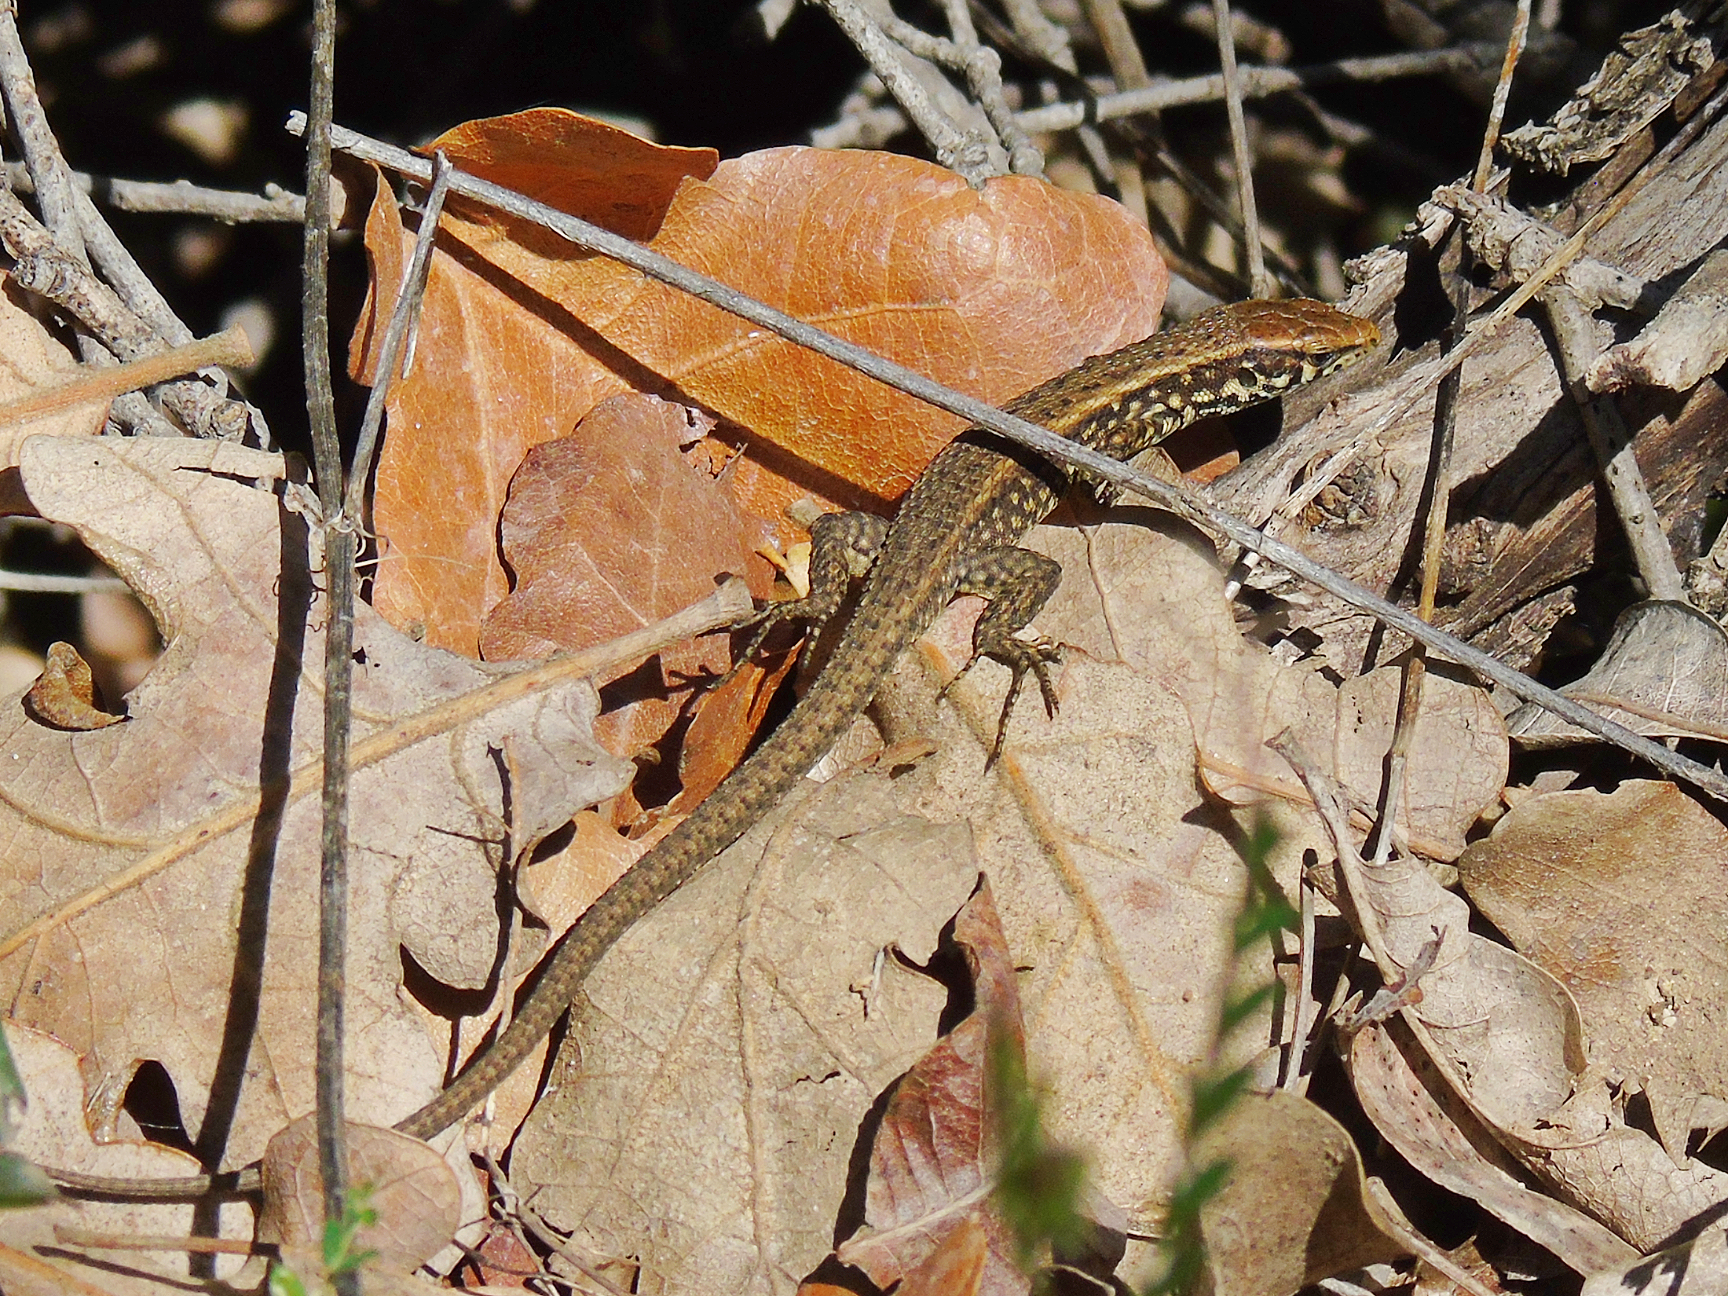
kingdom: Animalia
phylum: Chordata
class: Squamata
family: Lacertidae
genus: Algyroides
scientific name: Algyroides moreoticus
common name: Greek algyroides
